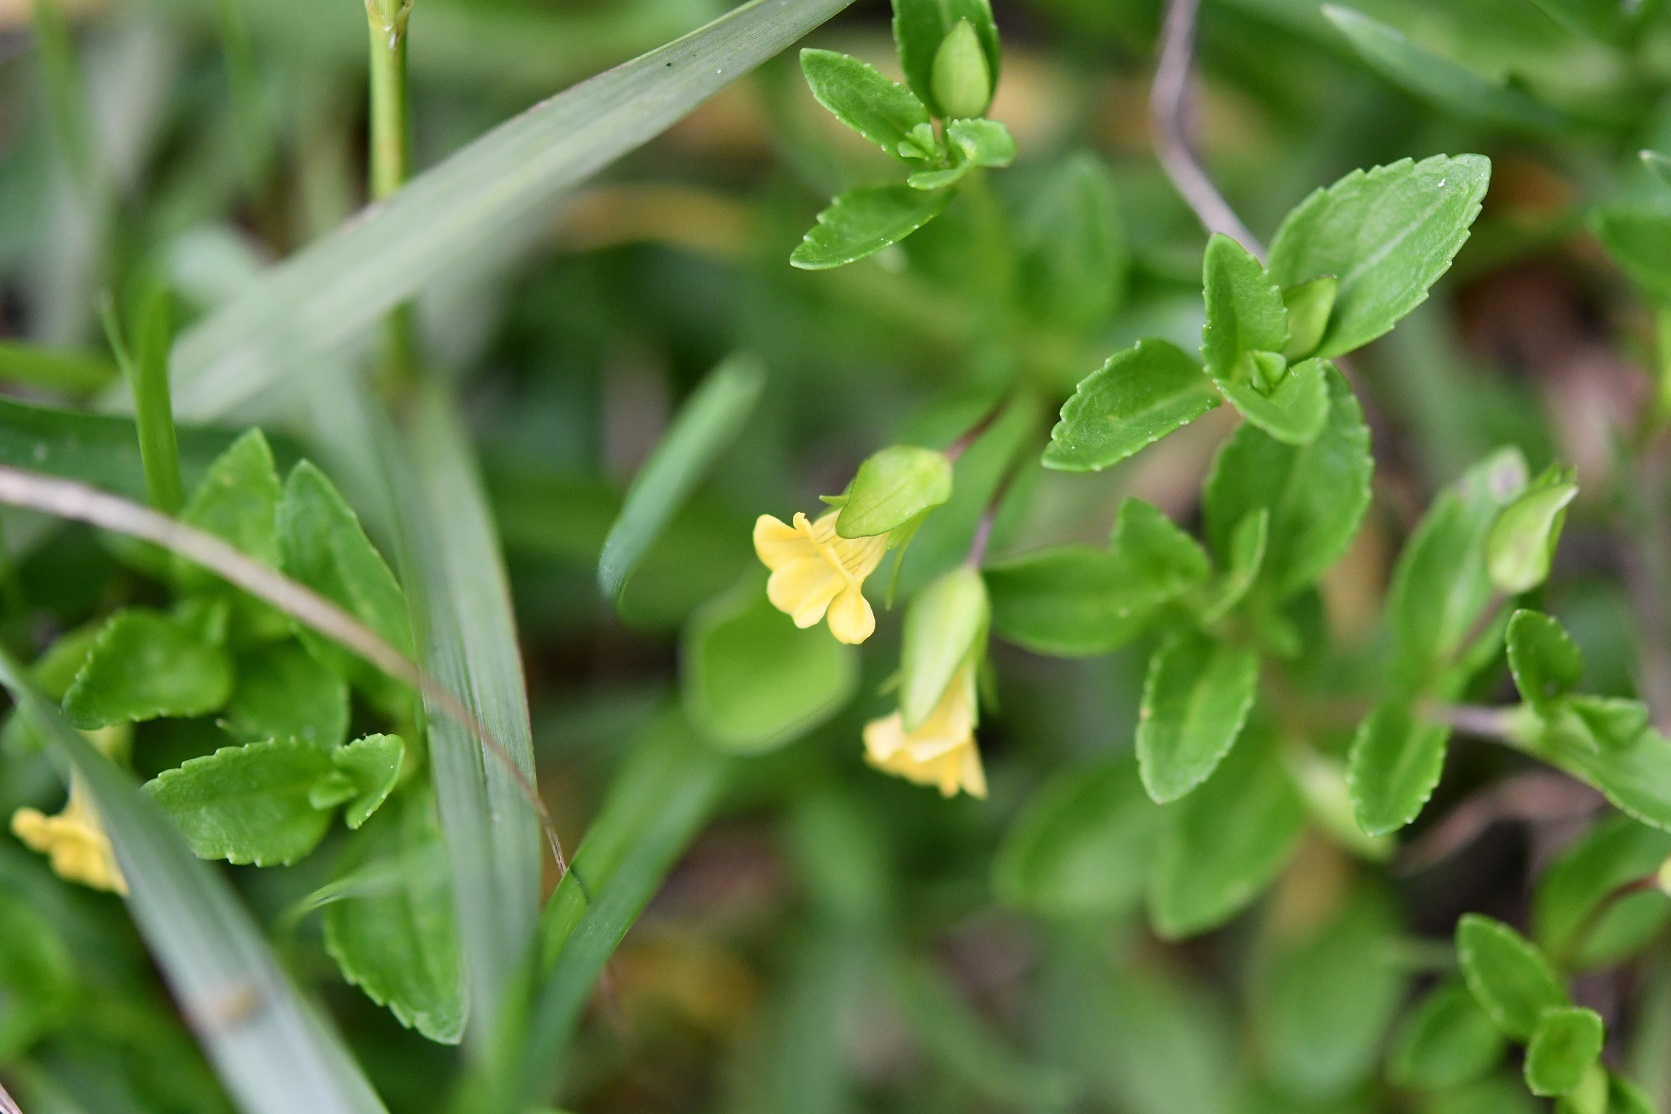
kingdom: Plantae
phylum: Tracheophyta
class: Magnoliopsida
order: Lamiales
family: Plantaginaceae
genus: Mecardonia
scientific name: Mecardonia procumbens
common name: Baby jump-up
